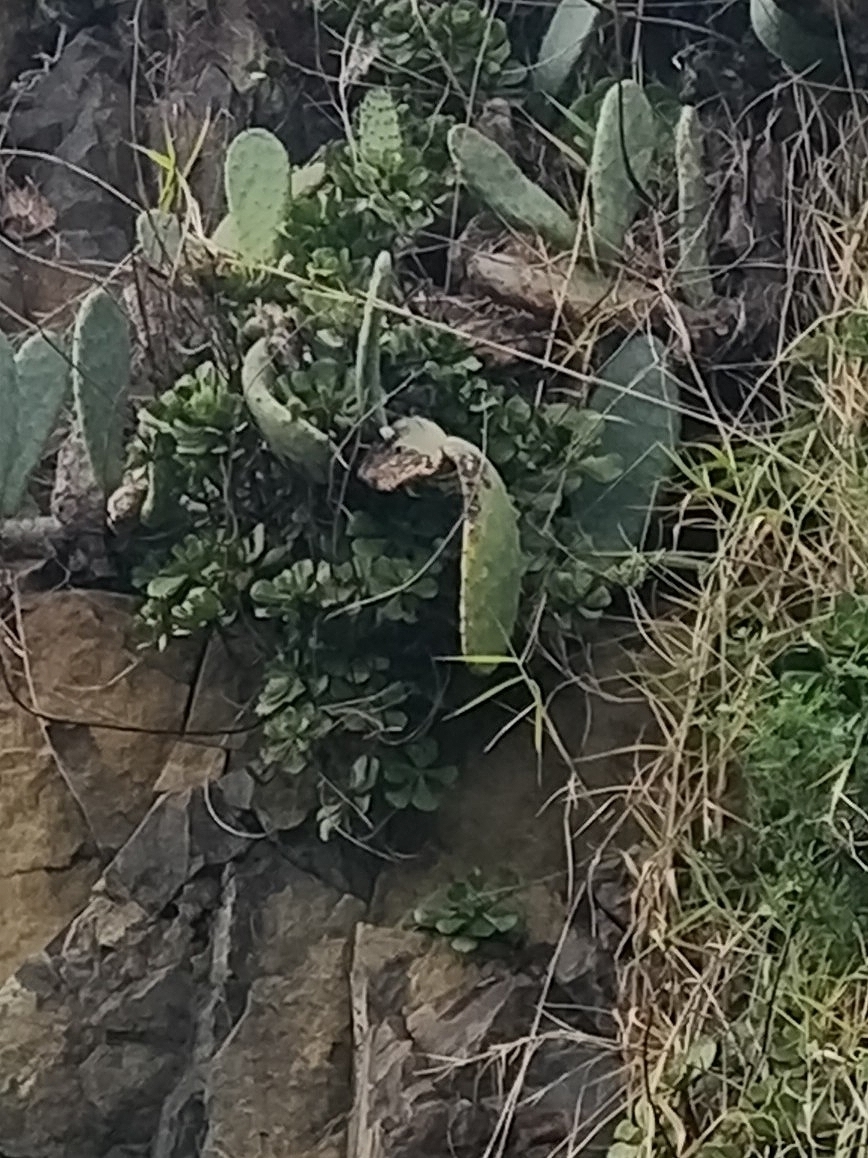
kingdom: Plantae
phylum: Tracheophyta
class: Magnoliopsida
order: Saxifragales
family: Crassulaceae
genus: Aeonium
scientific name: Aeonium glutinosum
